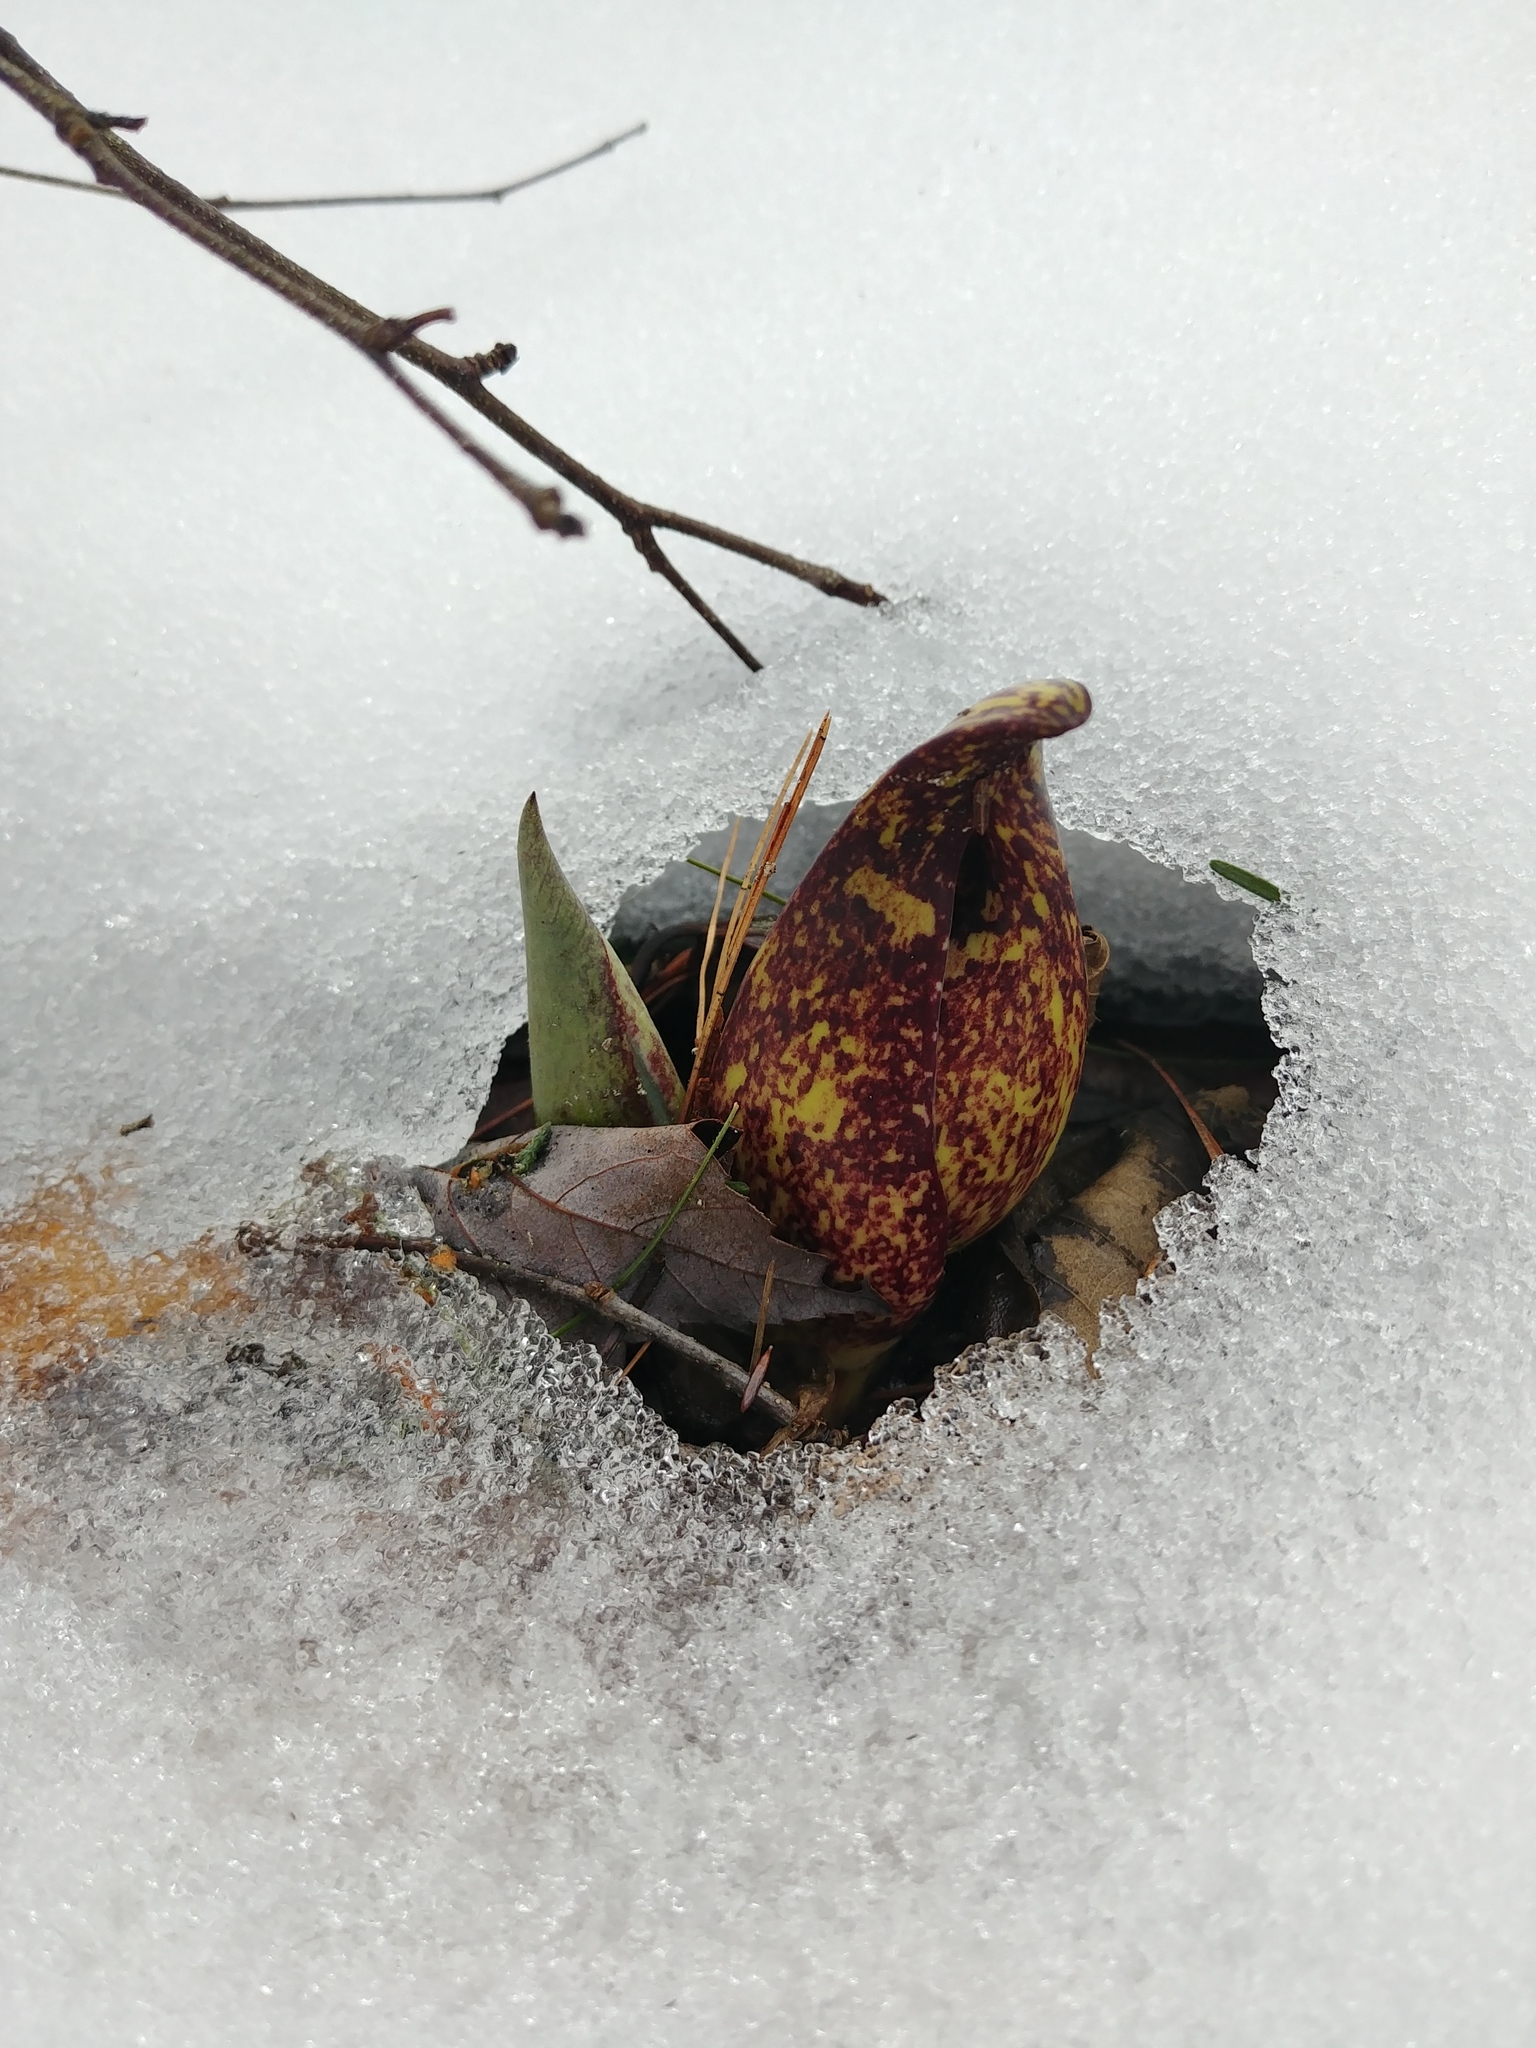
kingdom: Plantae
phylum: Tracheophyta
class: Liliopsida
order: Alismatales
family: Araceae
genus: Symplocarpus
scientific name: Symplocarpus foetidus
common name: Eastern skunk cabbage
